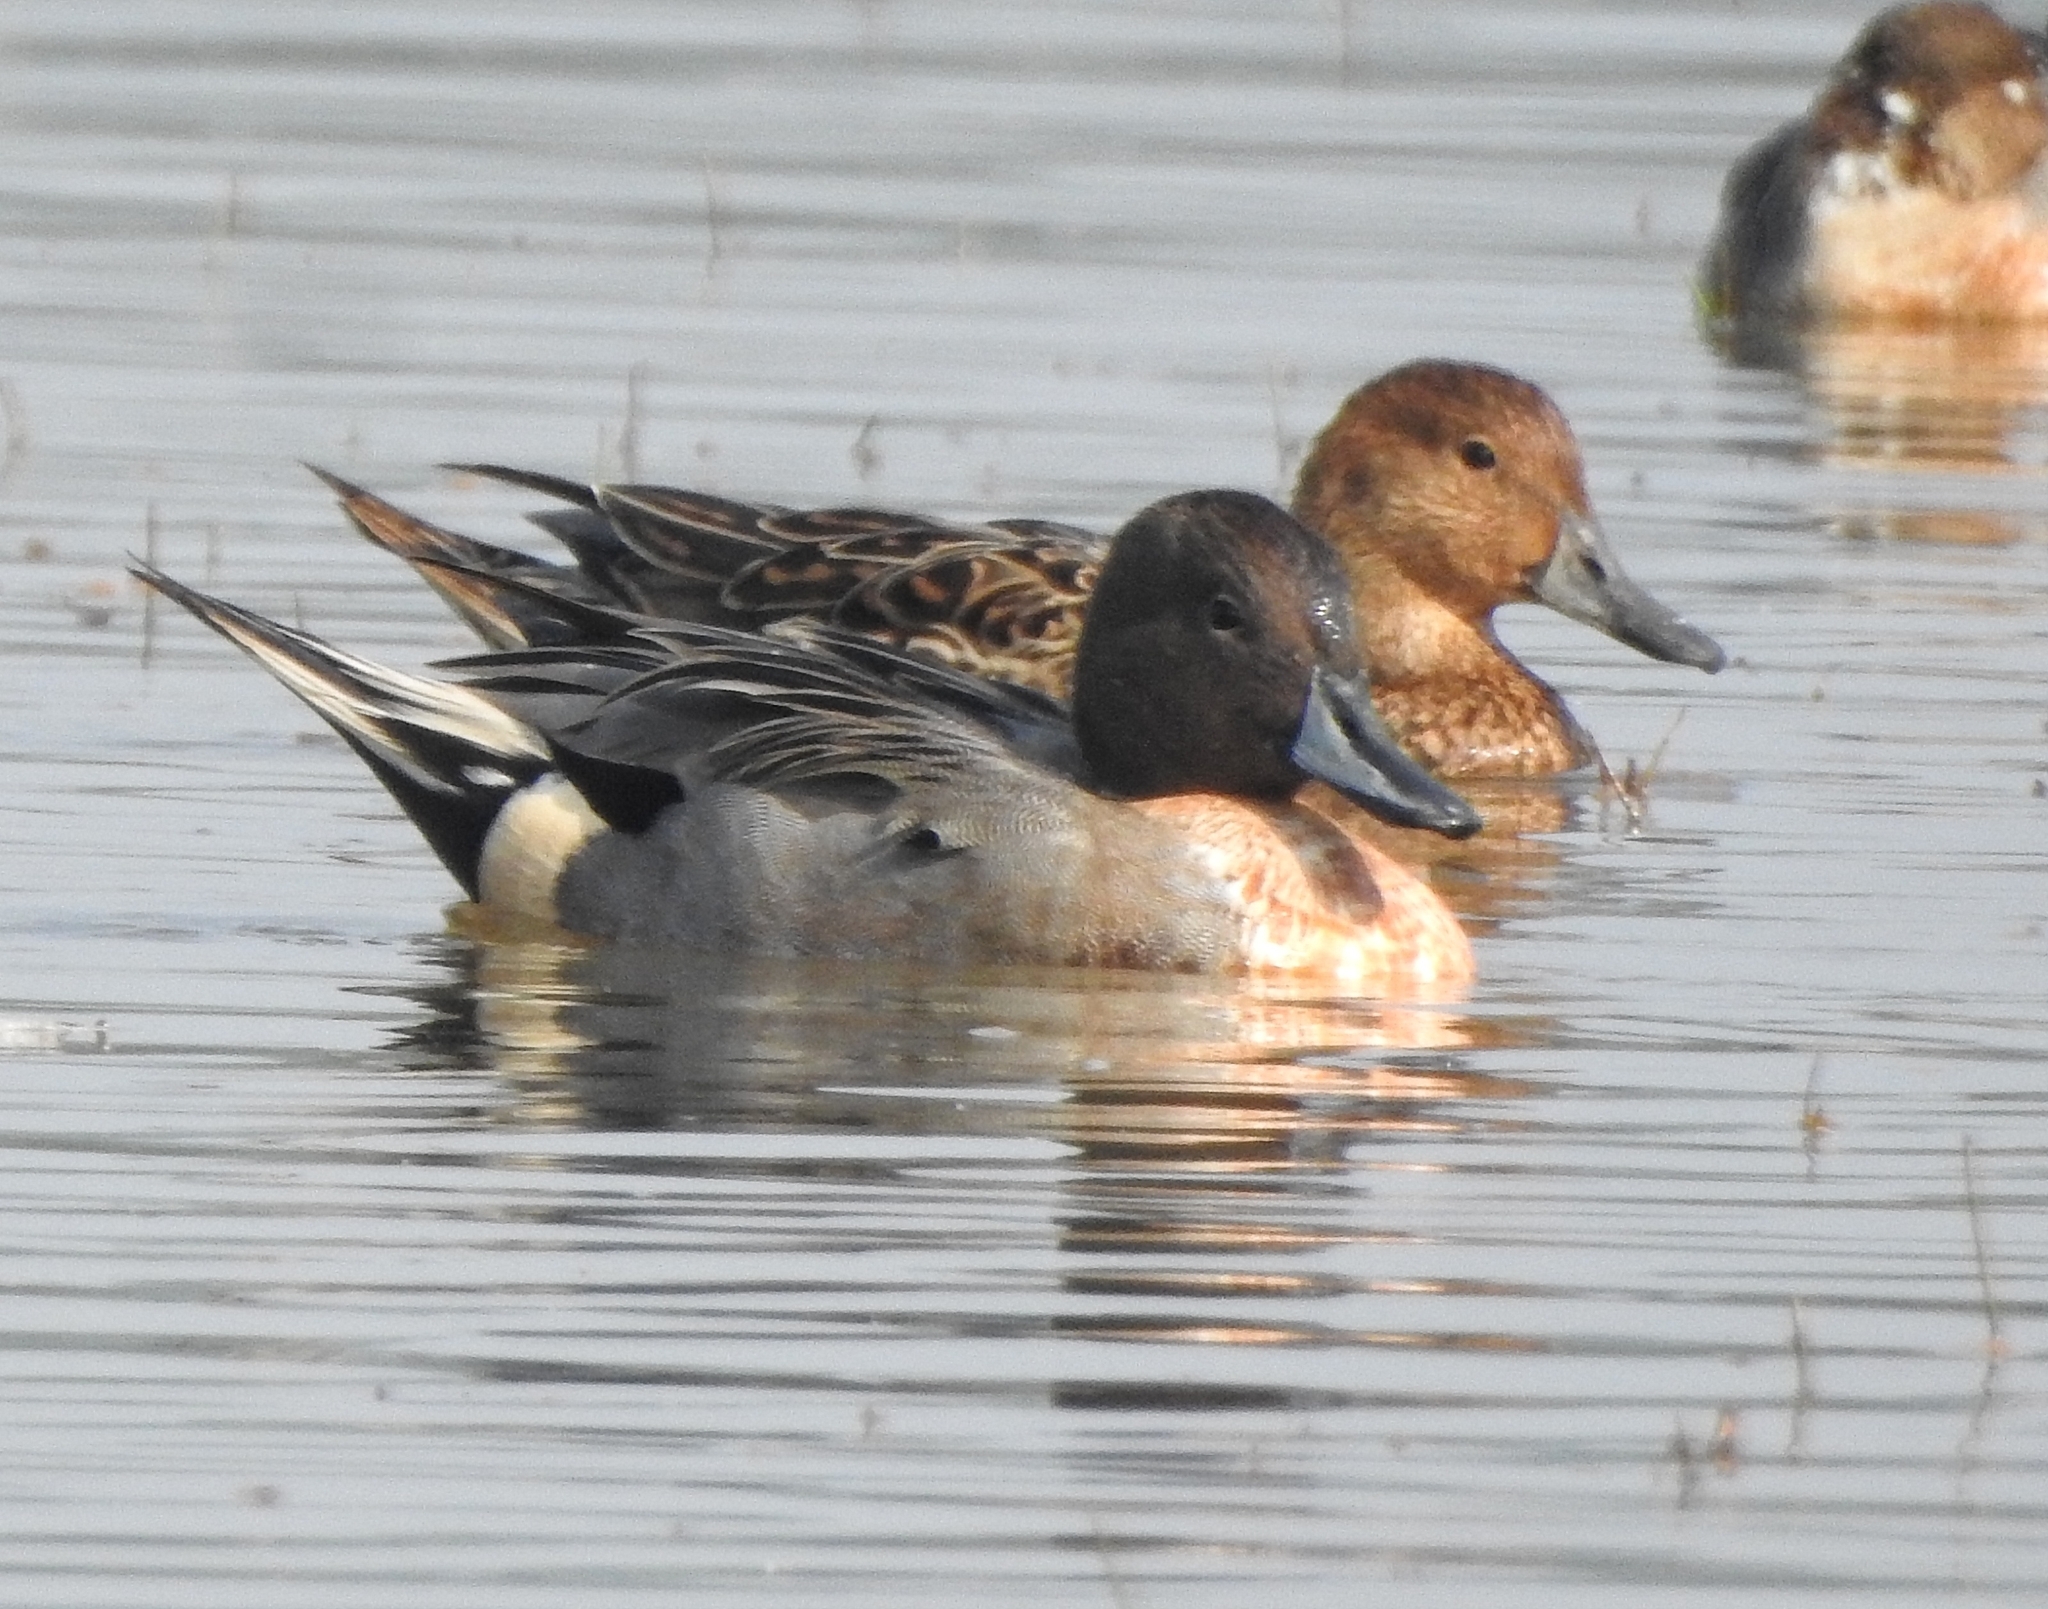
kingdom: Animalia
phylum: Chordata
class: Aves
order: Anseriformes
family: Anatidae
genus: Anas
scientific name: Anas acuta
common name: Northern pintail
